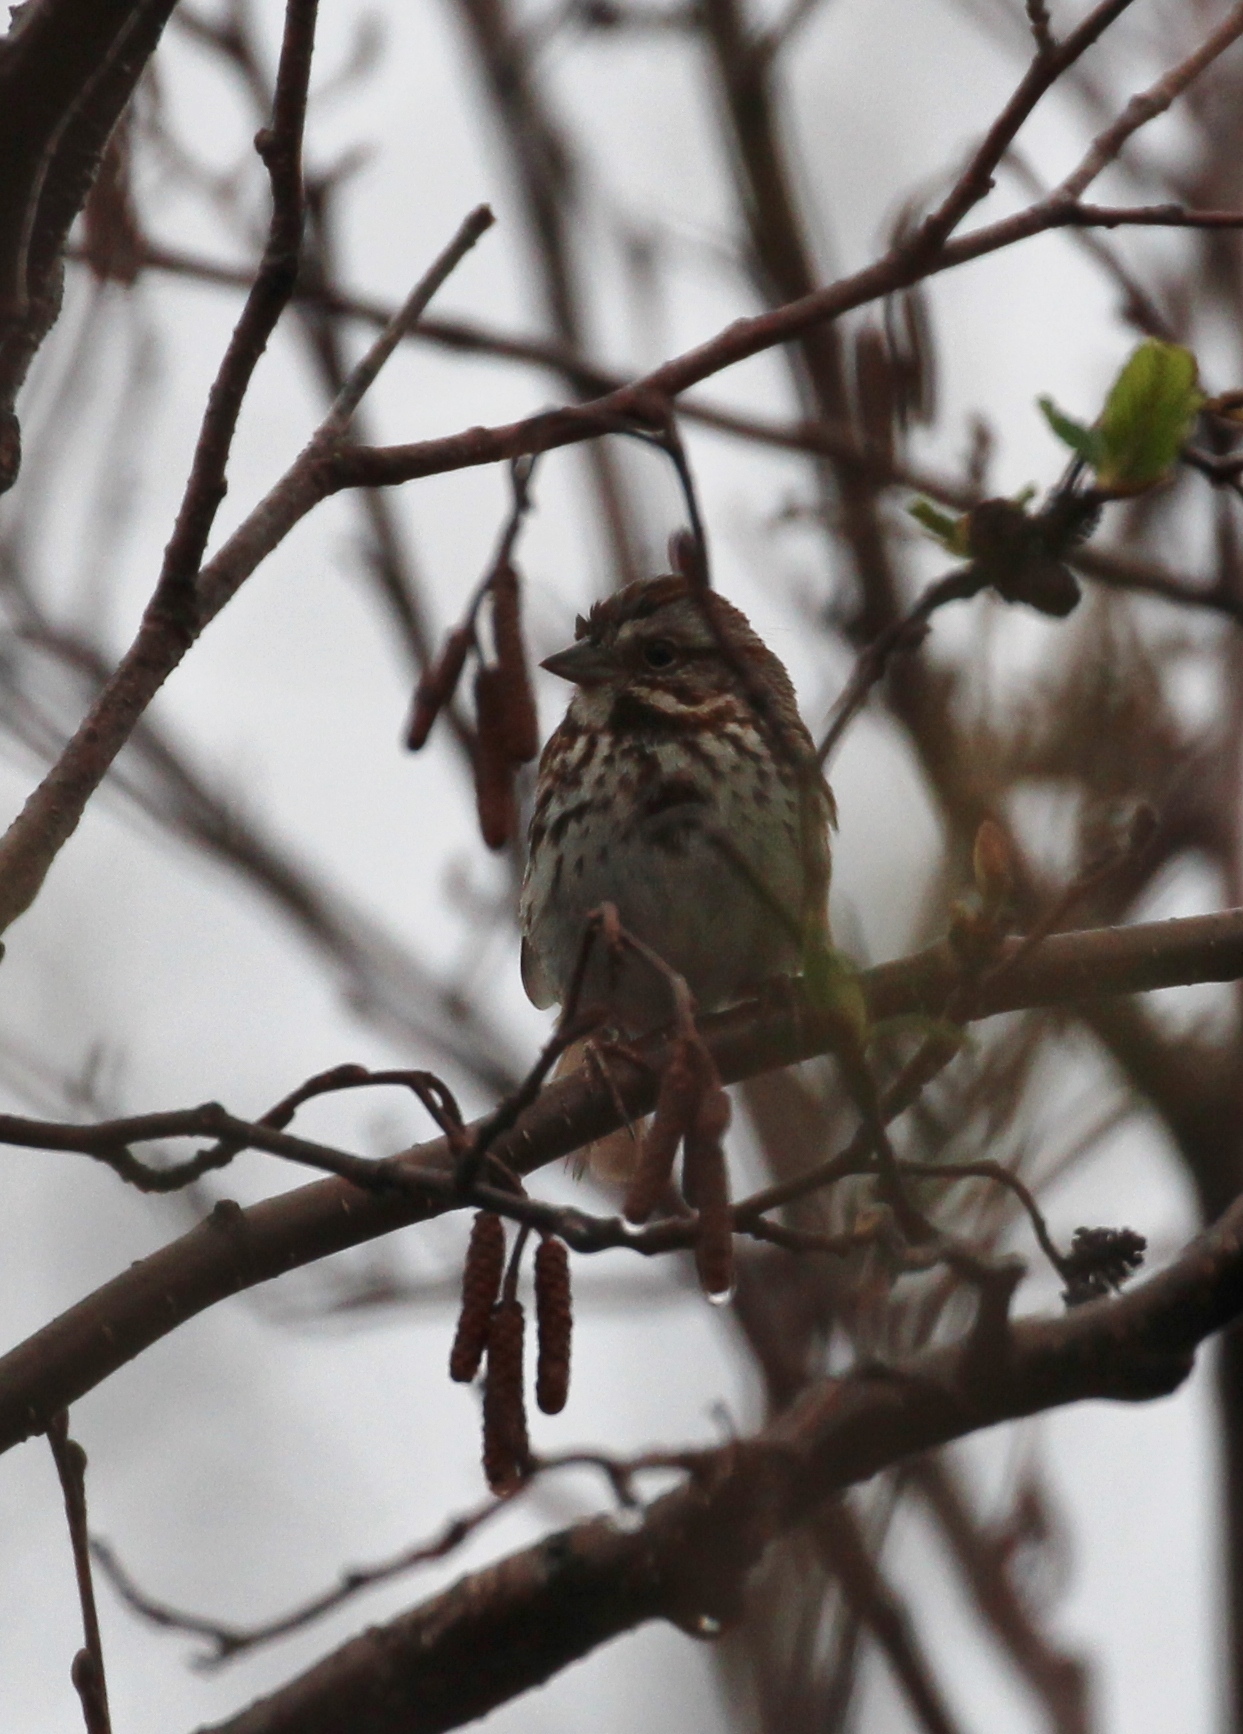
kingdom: Animalia
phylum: Chordata
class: Aves
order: Passeriformes
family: Passerellidae
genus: Melospiza
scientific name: Melospiza melodia
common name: Song sparrow
